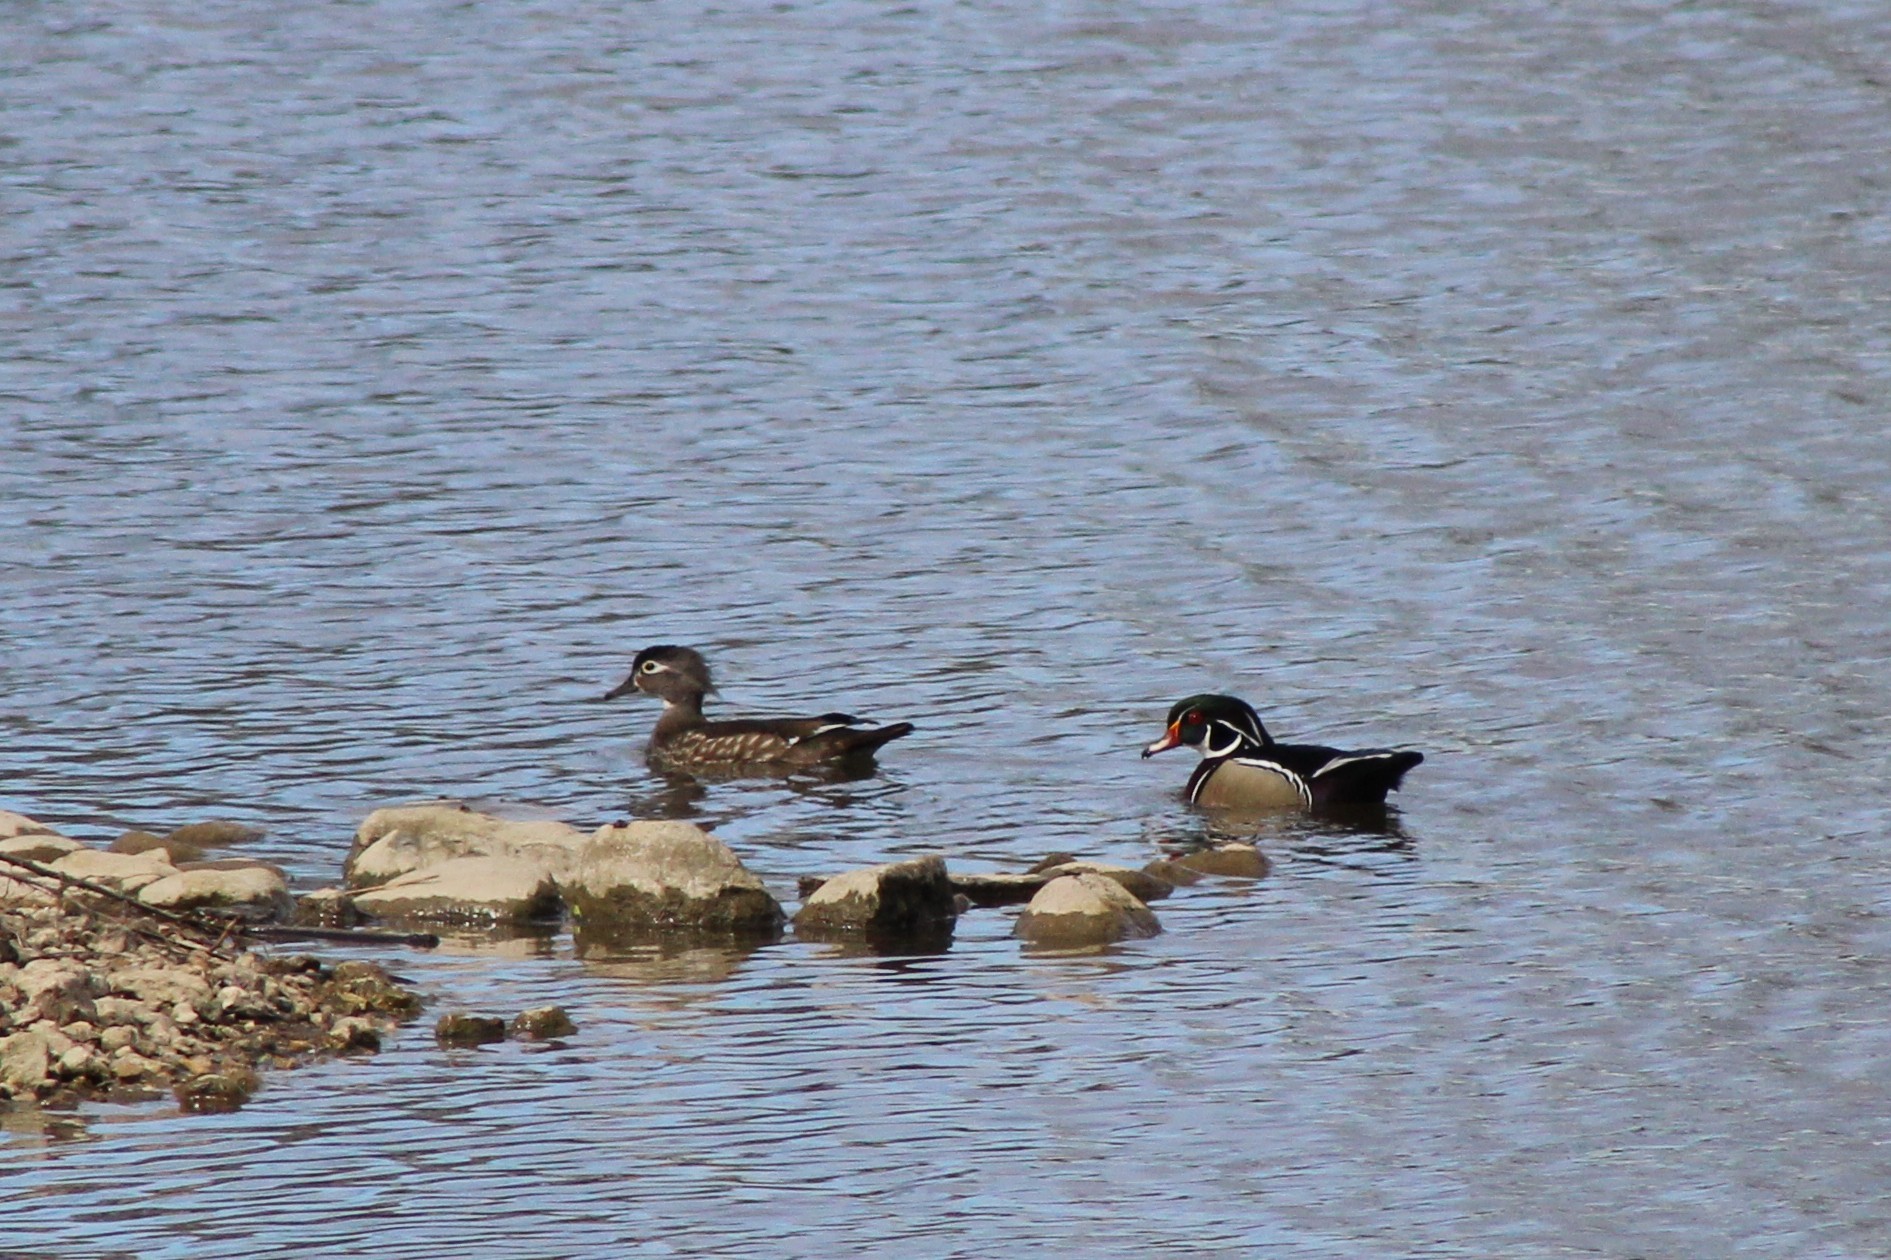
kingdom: Animalia
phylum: Chordata
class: Aves
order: Anseriformes
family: Anatidae
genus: Aix
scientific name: Aix sponsa
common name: Wood duck
